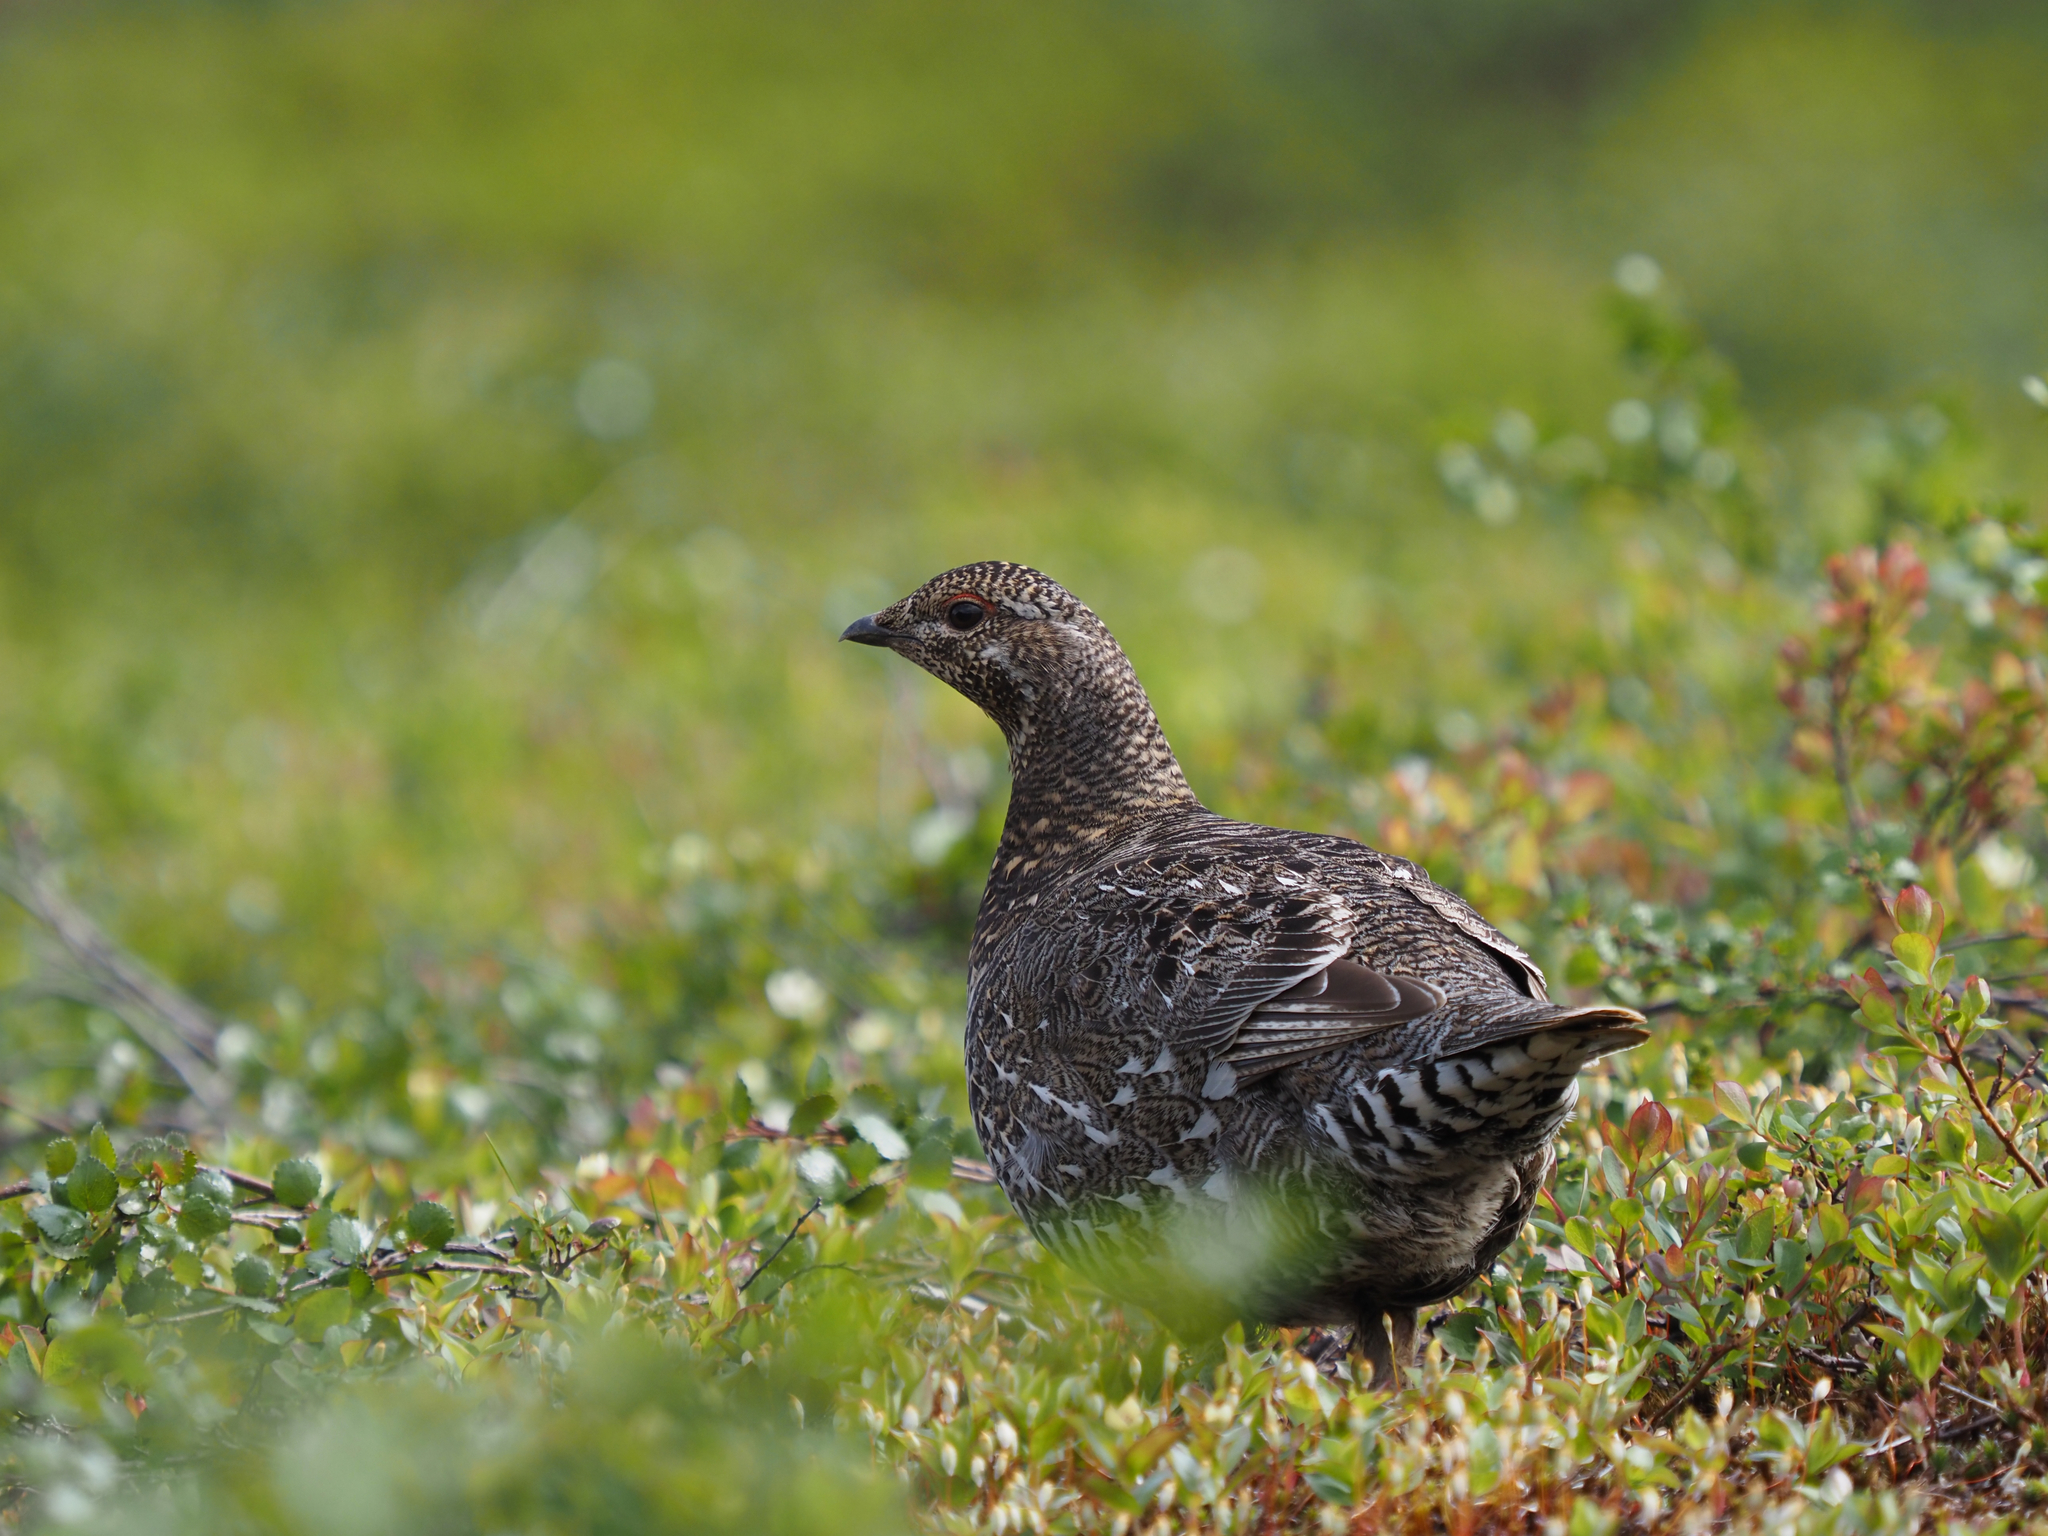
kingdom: Animalia
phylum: Chordata
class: Aves
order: Galliformes
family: Phasianidae
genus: Canachites
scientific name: Canachites canadensis
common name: Spruce grouse
